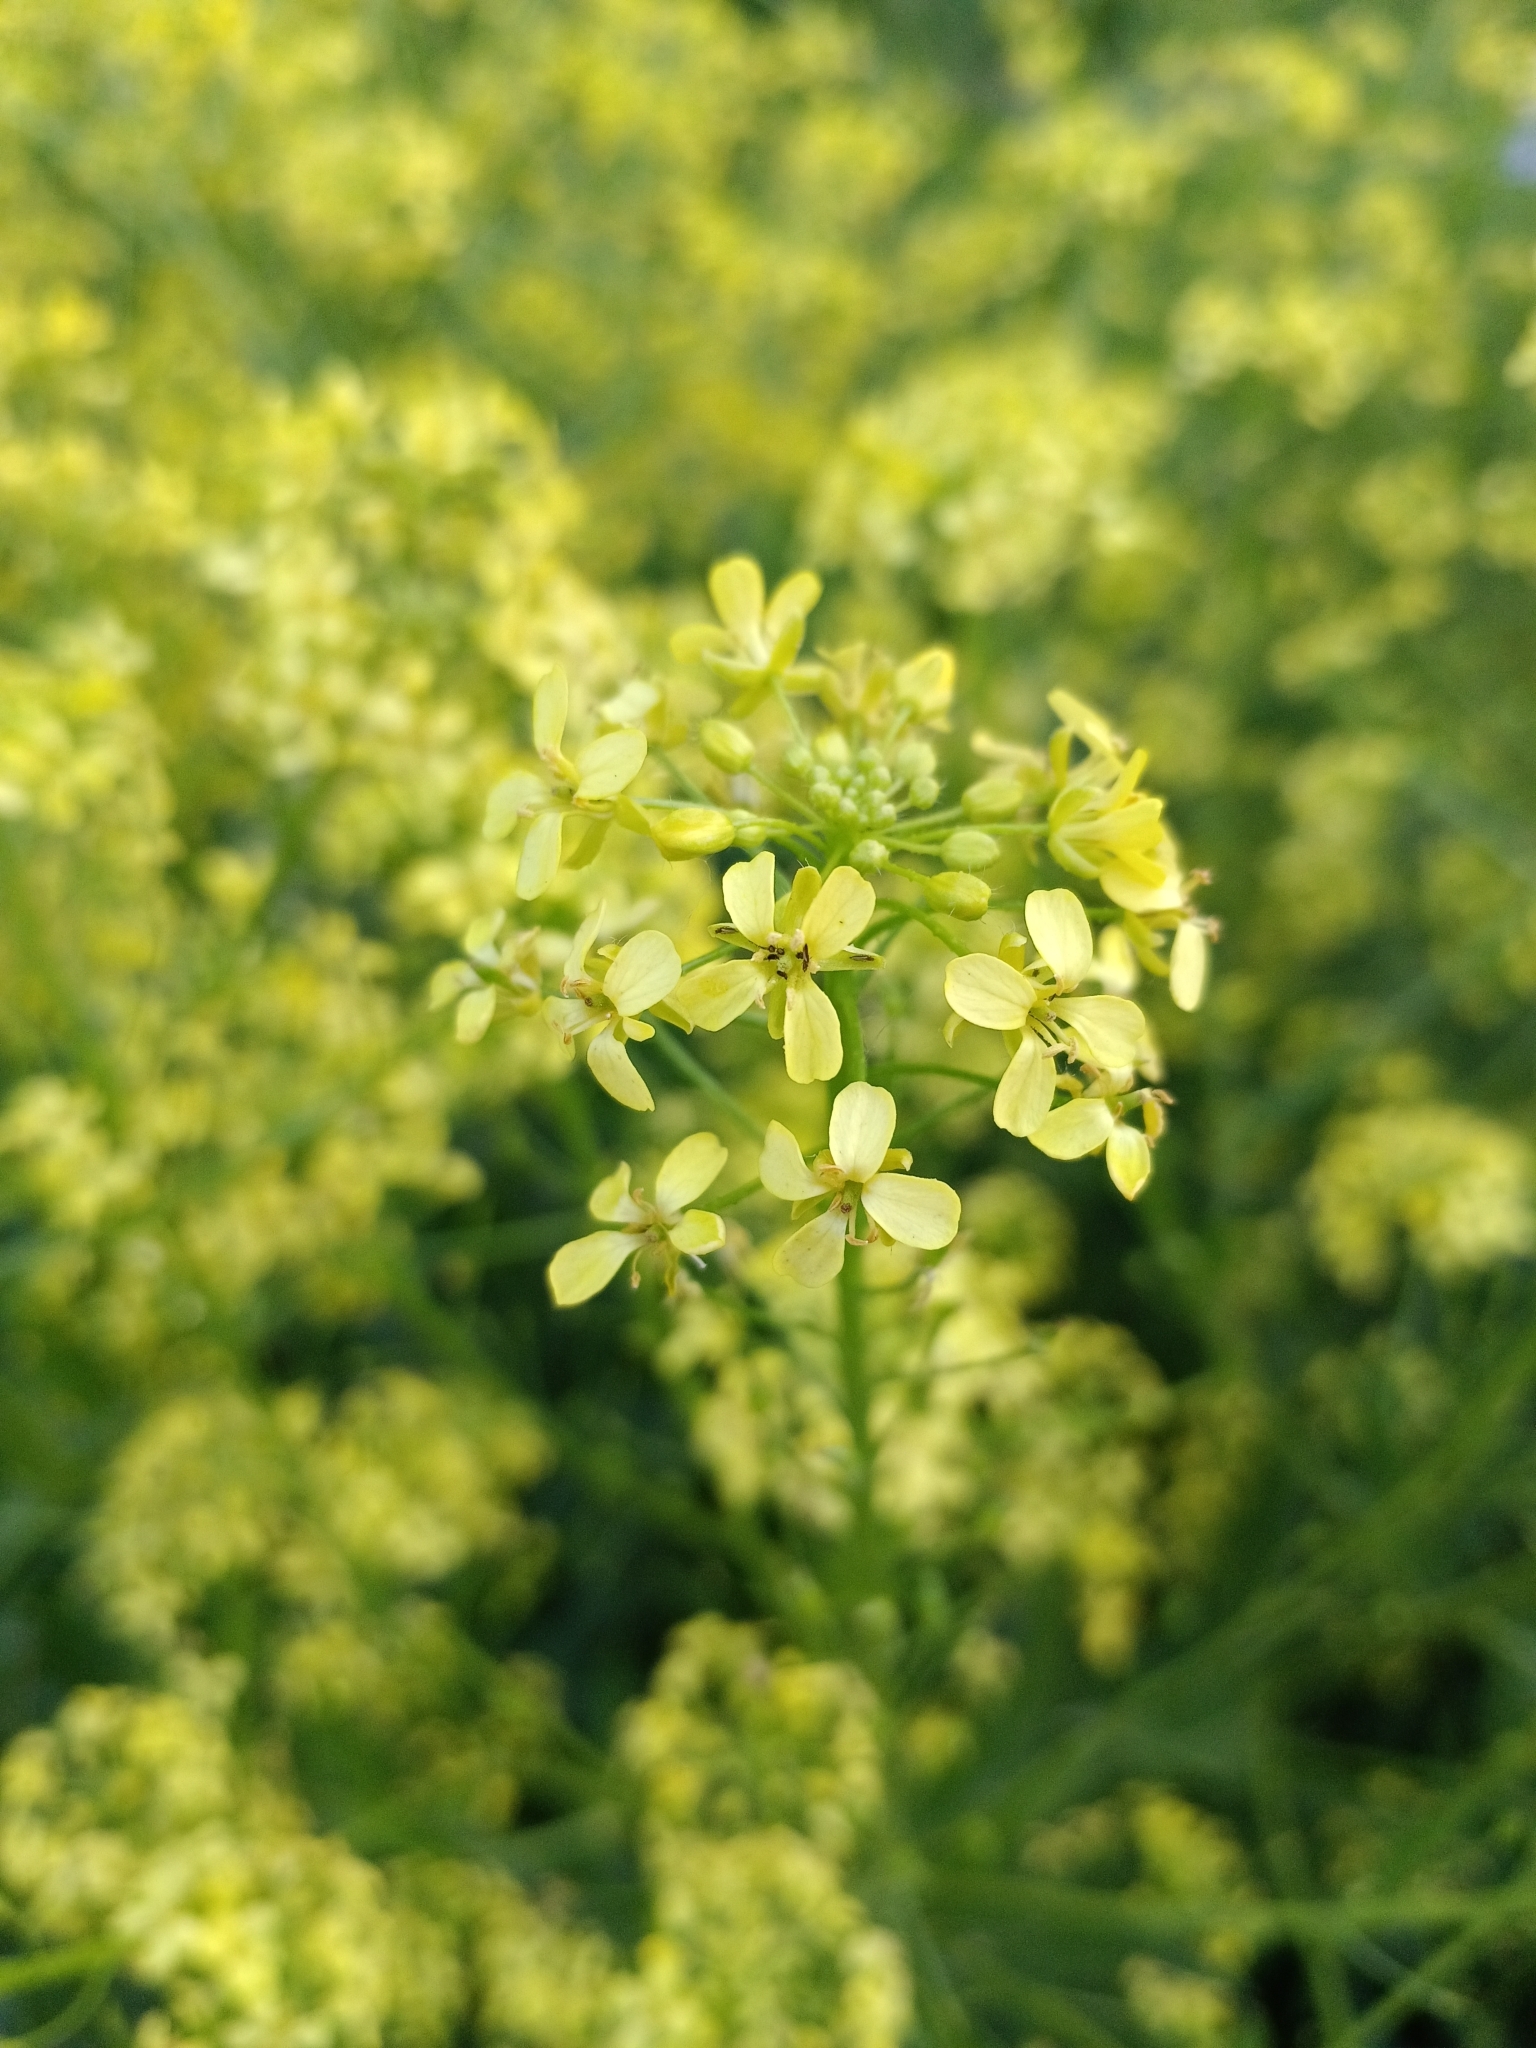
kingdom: Plantae
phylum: Tracheophyta
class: Magnoliopsida
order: Brassicales
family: Brassicaceae
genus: Bunias
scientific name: Bunias orientalis
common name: Warty-cabbage
